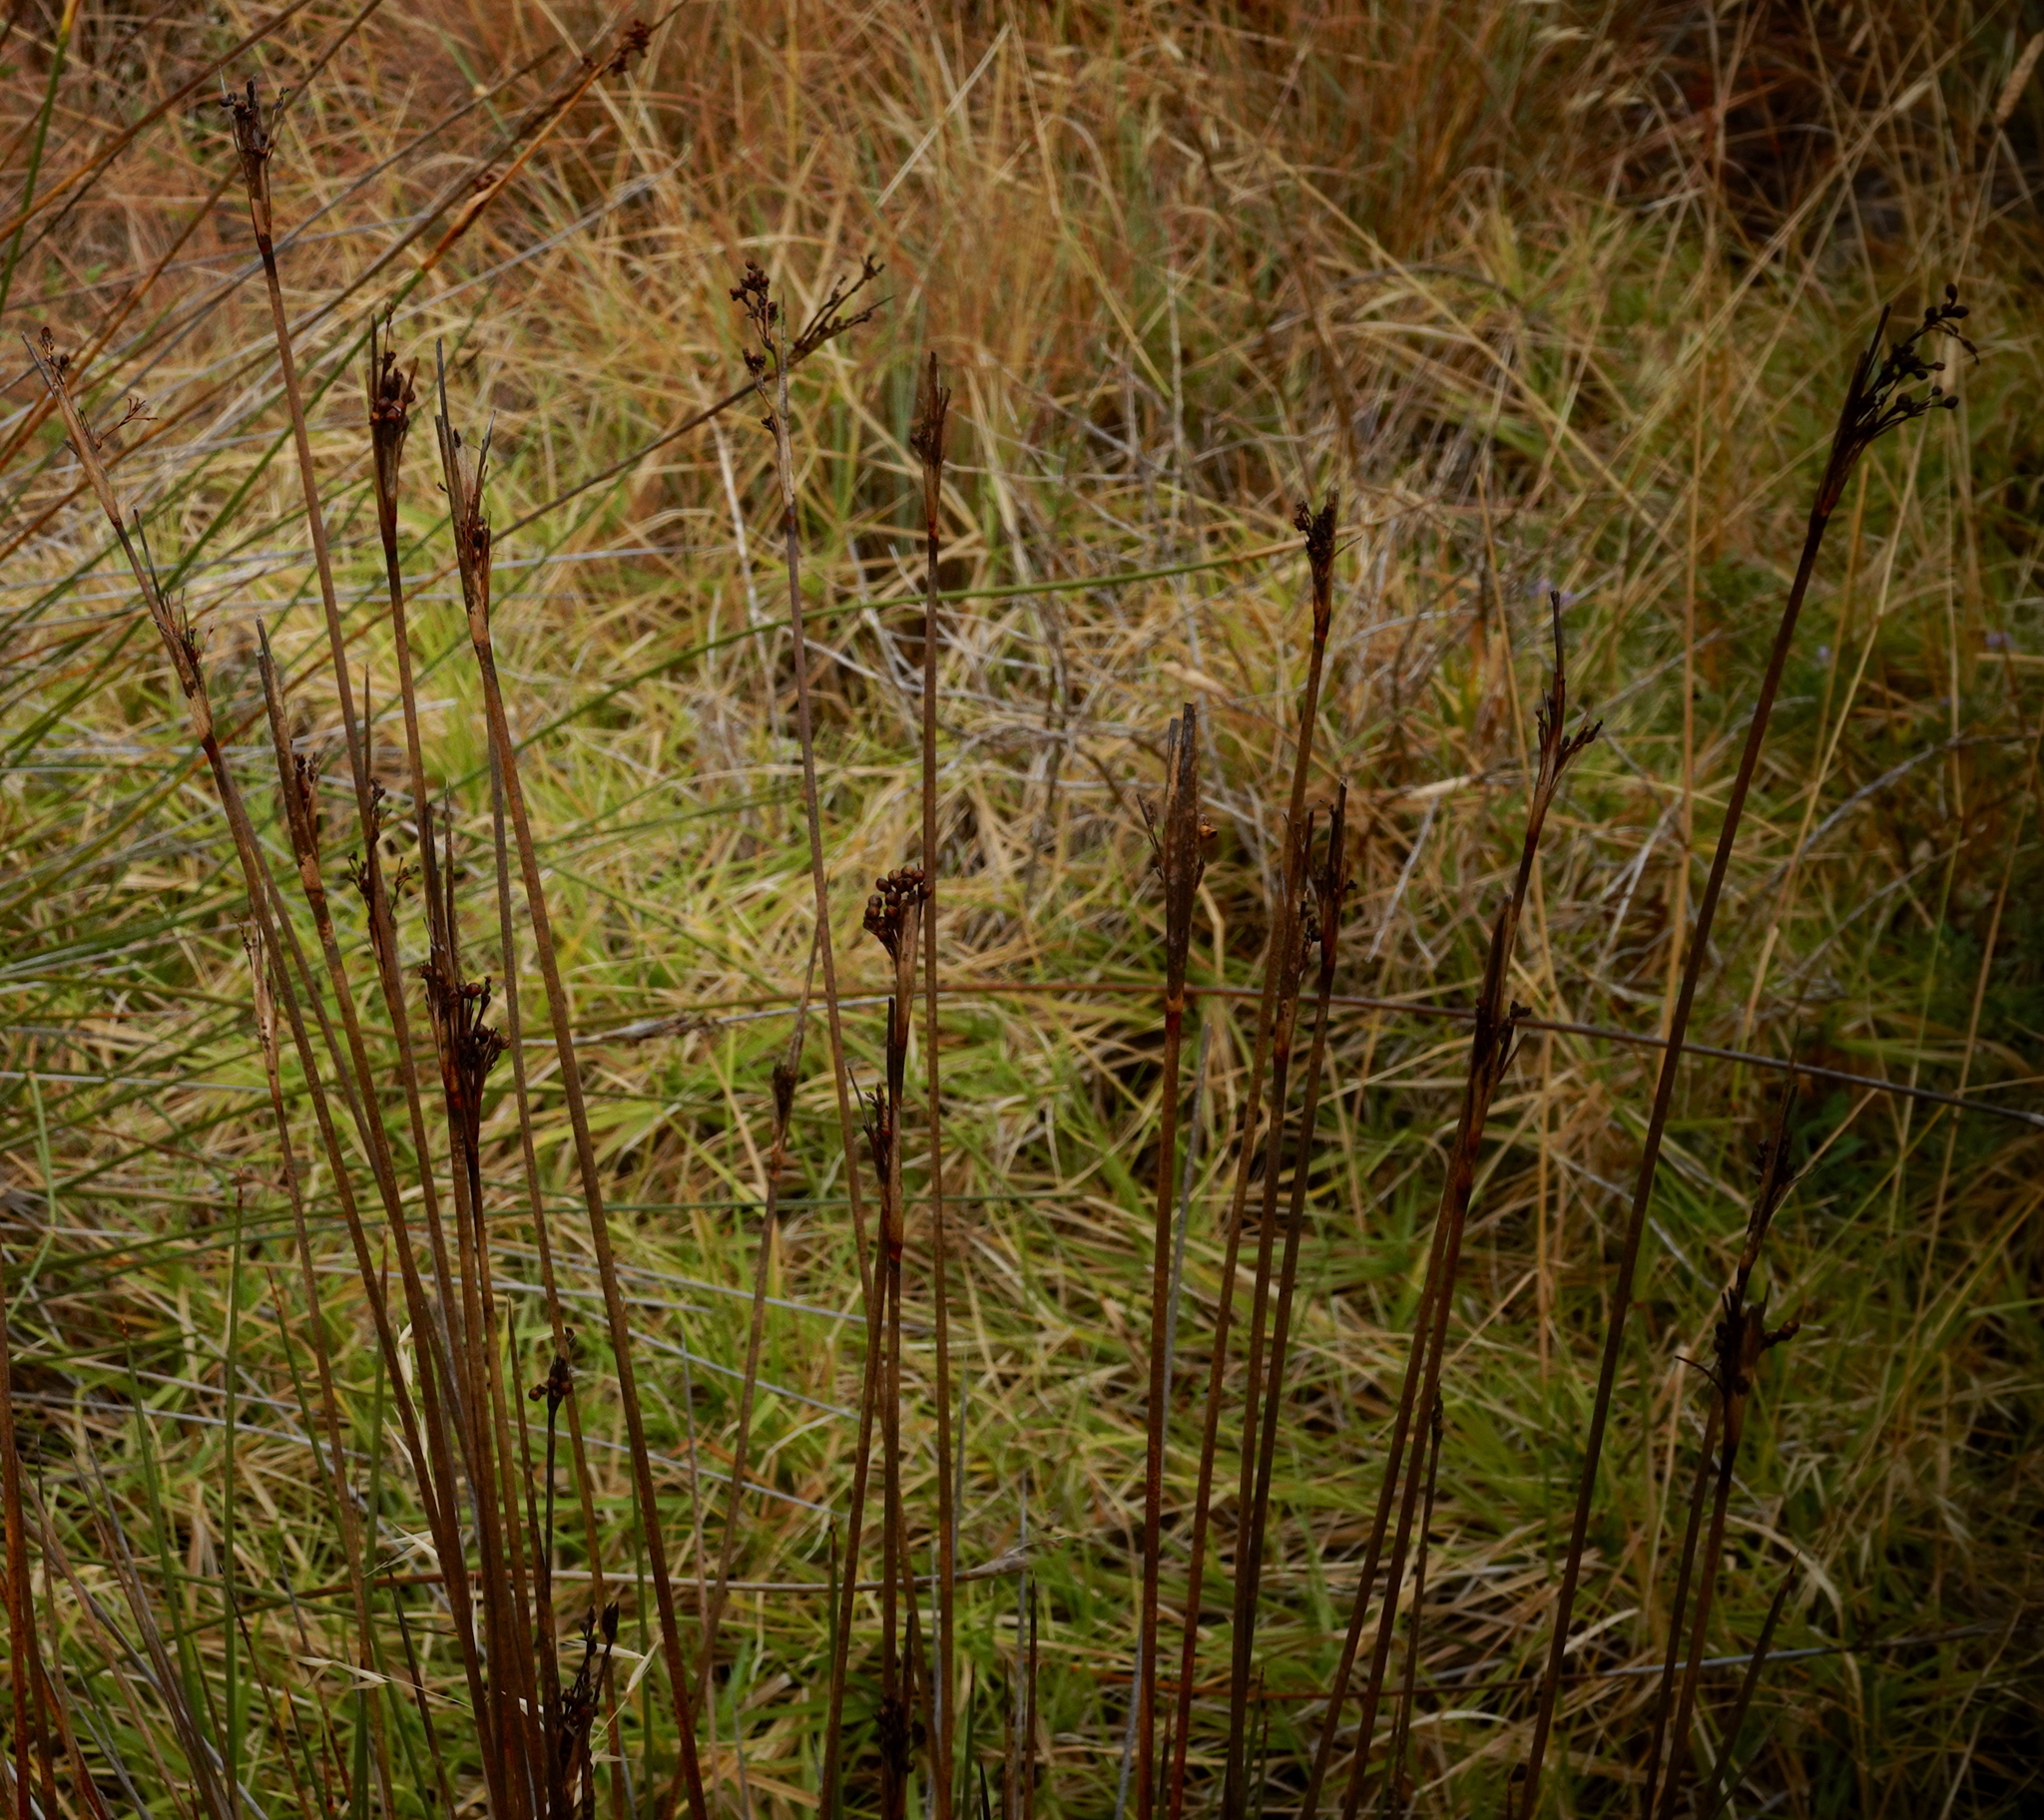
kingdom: Plantae
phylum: Tracheophyta
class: Liliopsida
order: Poales
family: Juncaceae
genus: Juncus
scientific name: Juncus acutus
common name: Sharp rush
